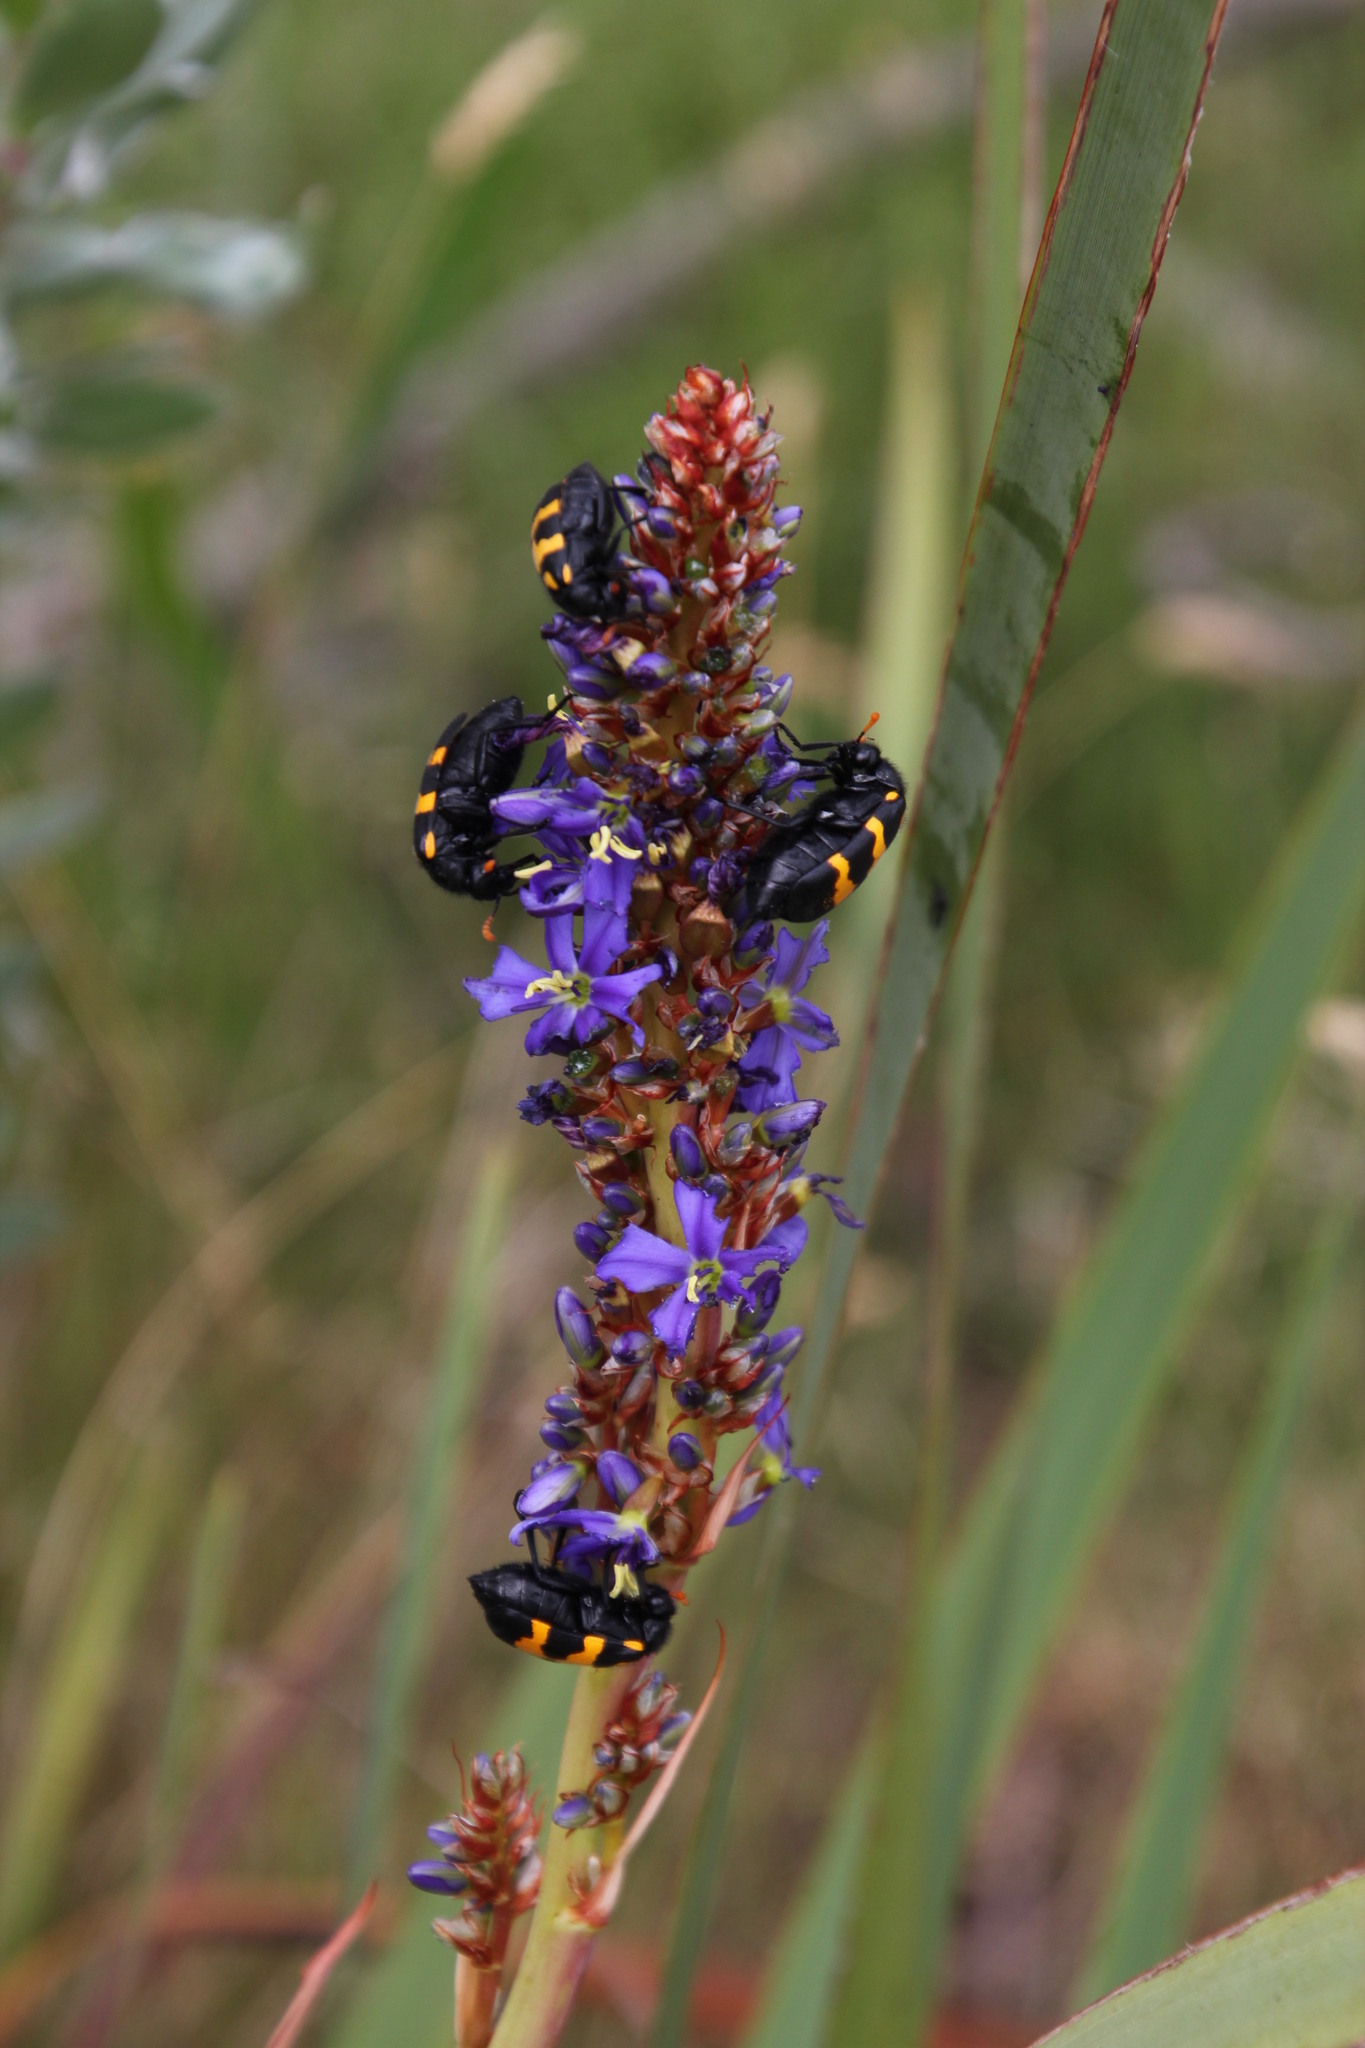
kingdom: Animalia
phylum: Arthropoda
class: Insecta
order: Coleoptera
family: Meloidae
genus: Meloe
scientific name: Meloe lunata
